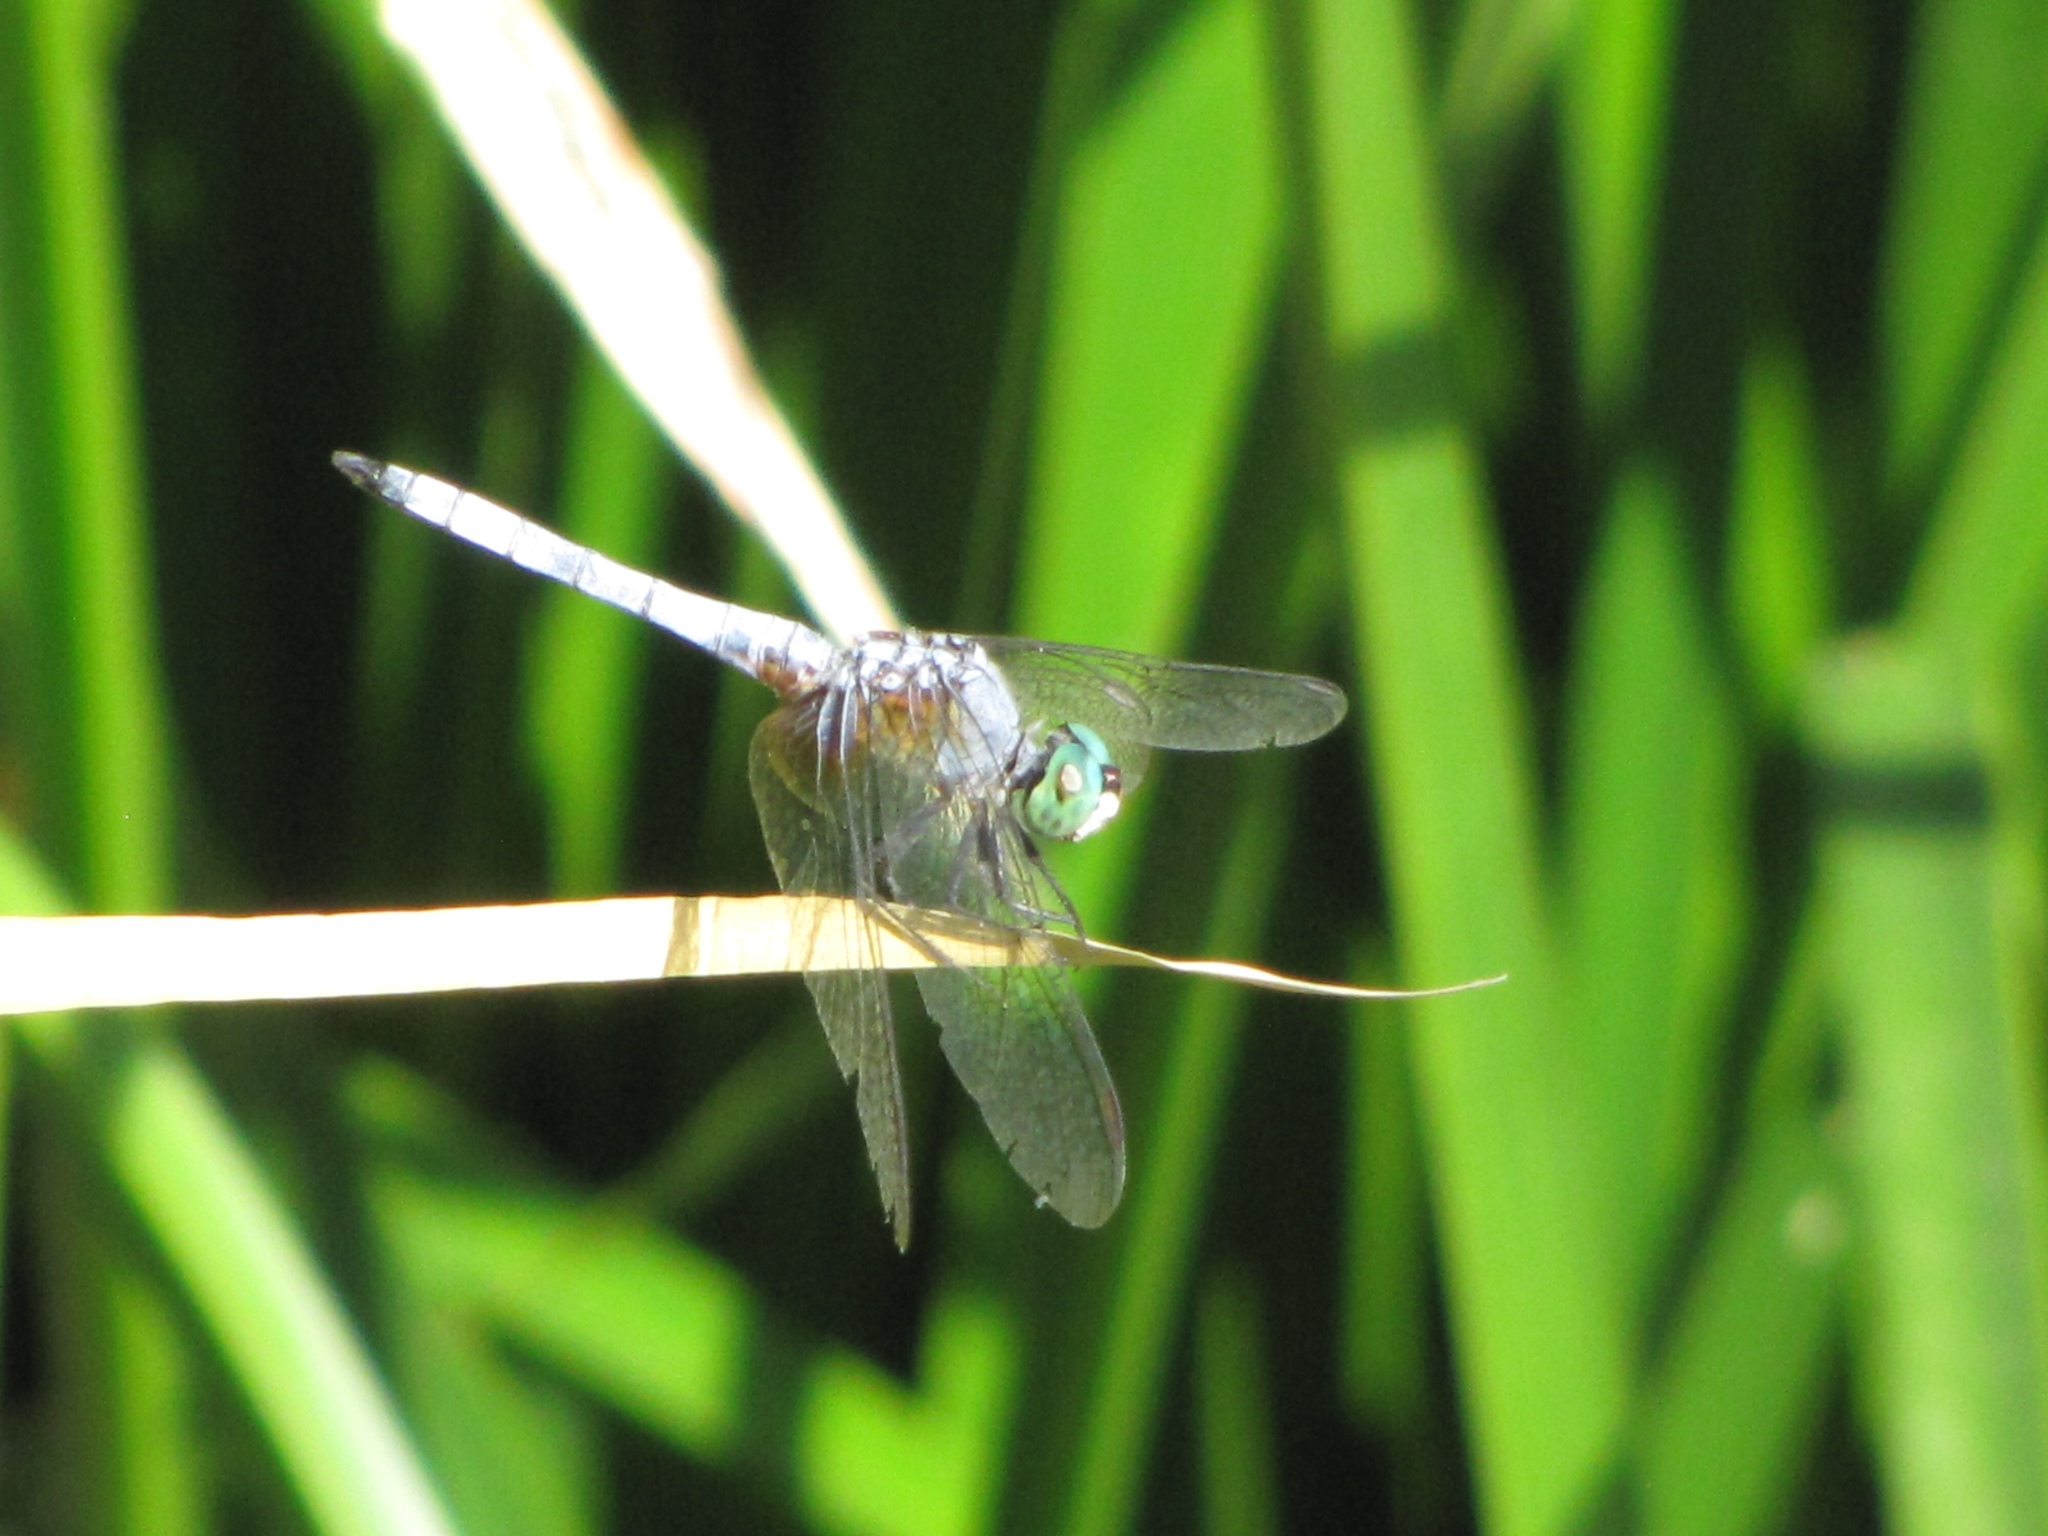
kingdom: Animalia
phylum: Arthropoda
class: Insecta
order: Odonata
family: Libellulidae
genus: Pachydiplax
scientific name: Pachydiplax longipennis
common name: Blue dasher
